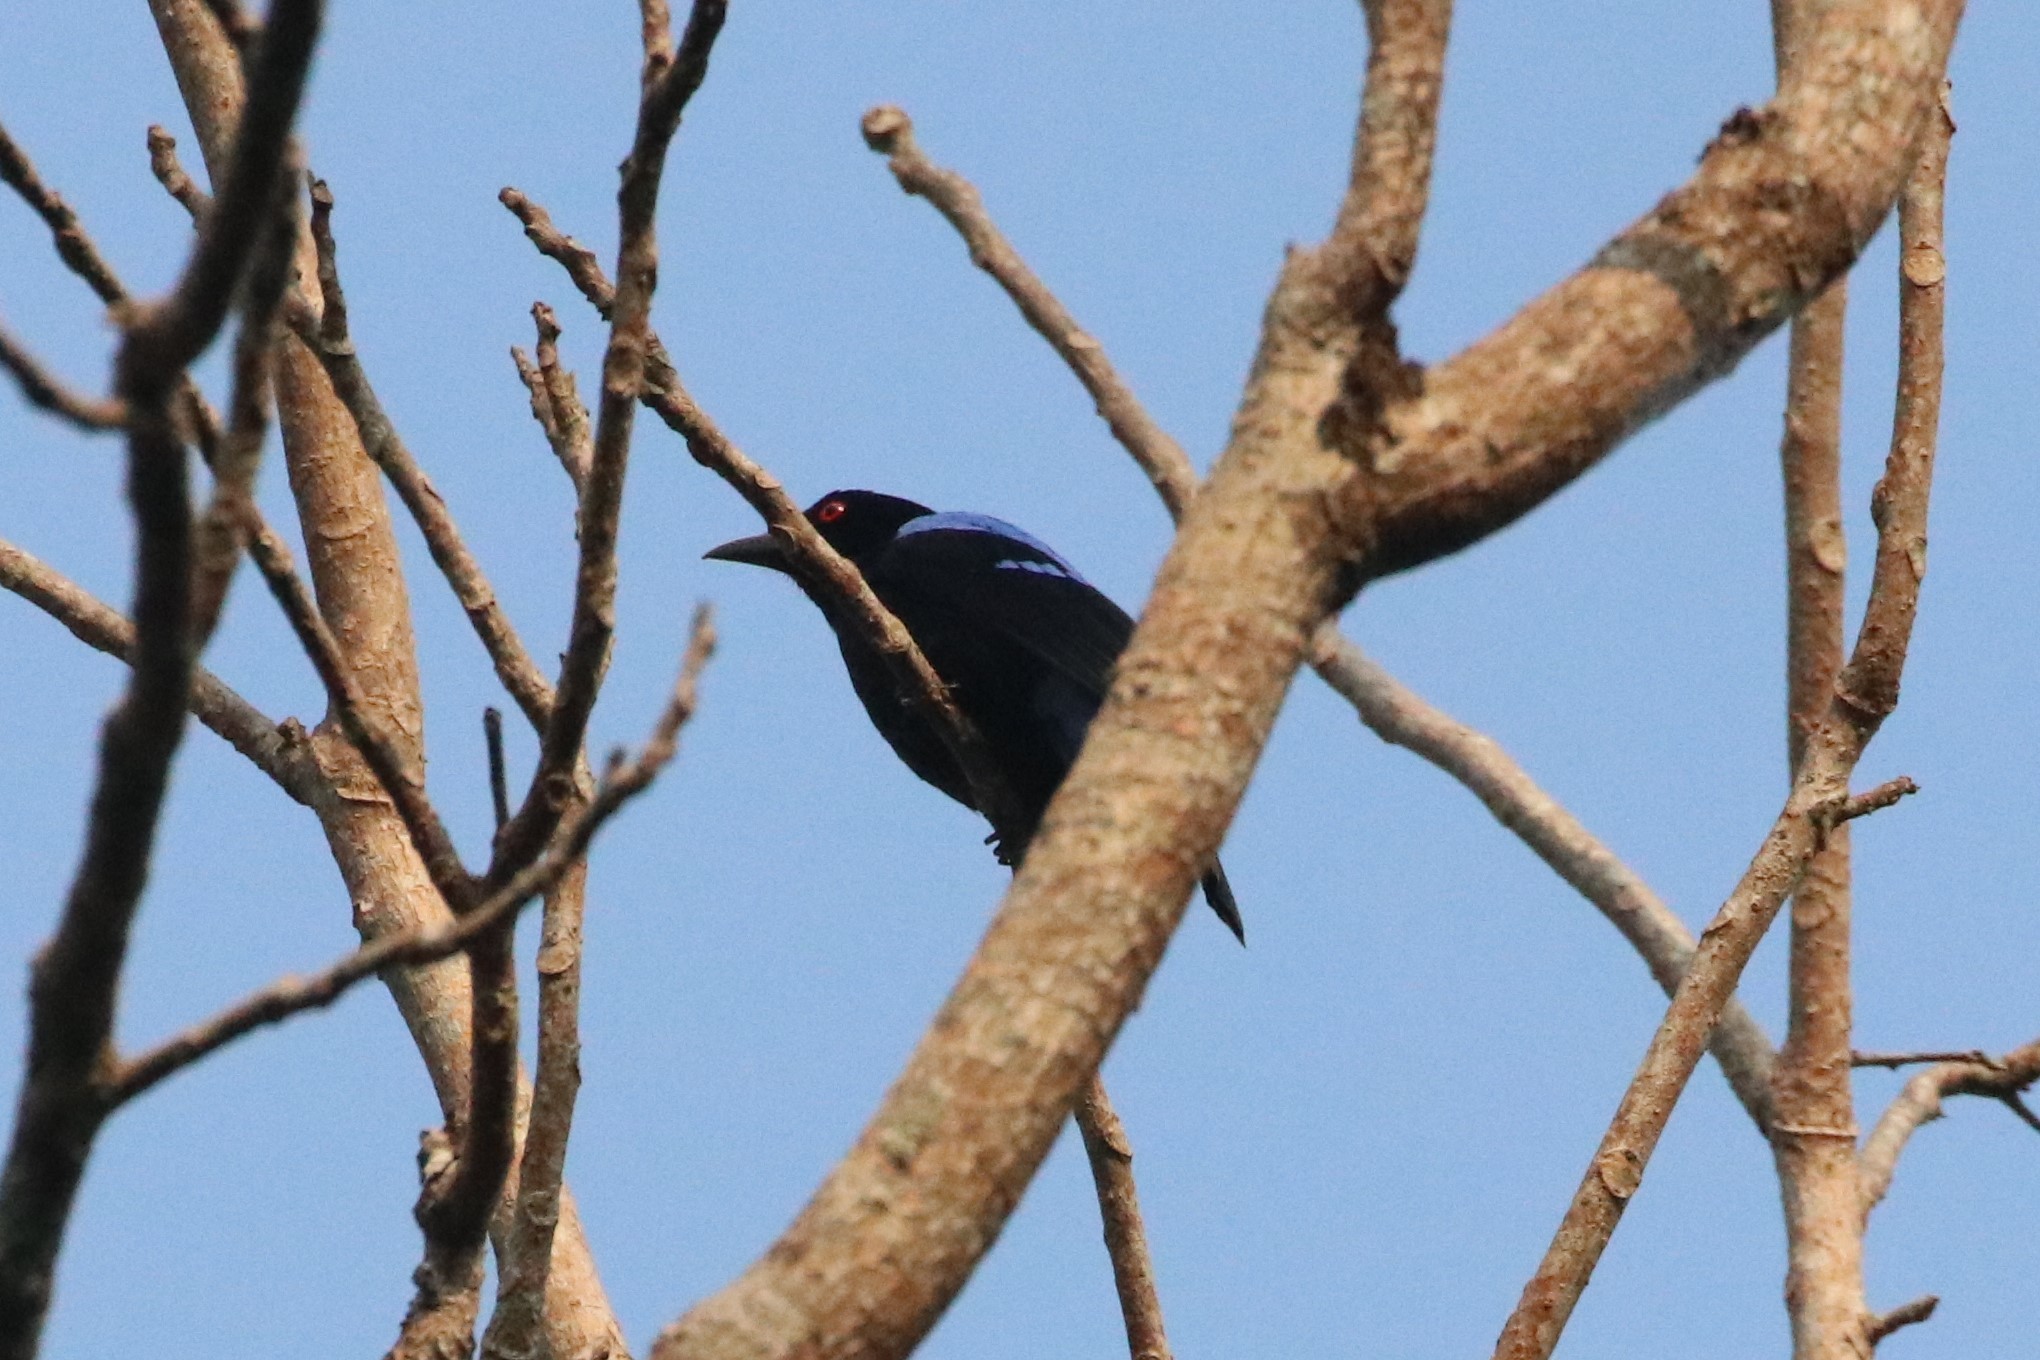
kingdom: Animalia
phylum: Chordata
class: Aves
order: Passeriformes
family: Irenidae
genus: Irena
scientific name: Irena puella
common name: Asian fairy-bluebird
